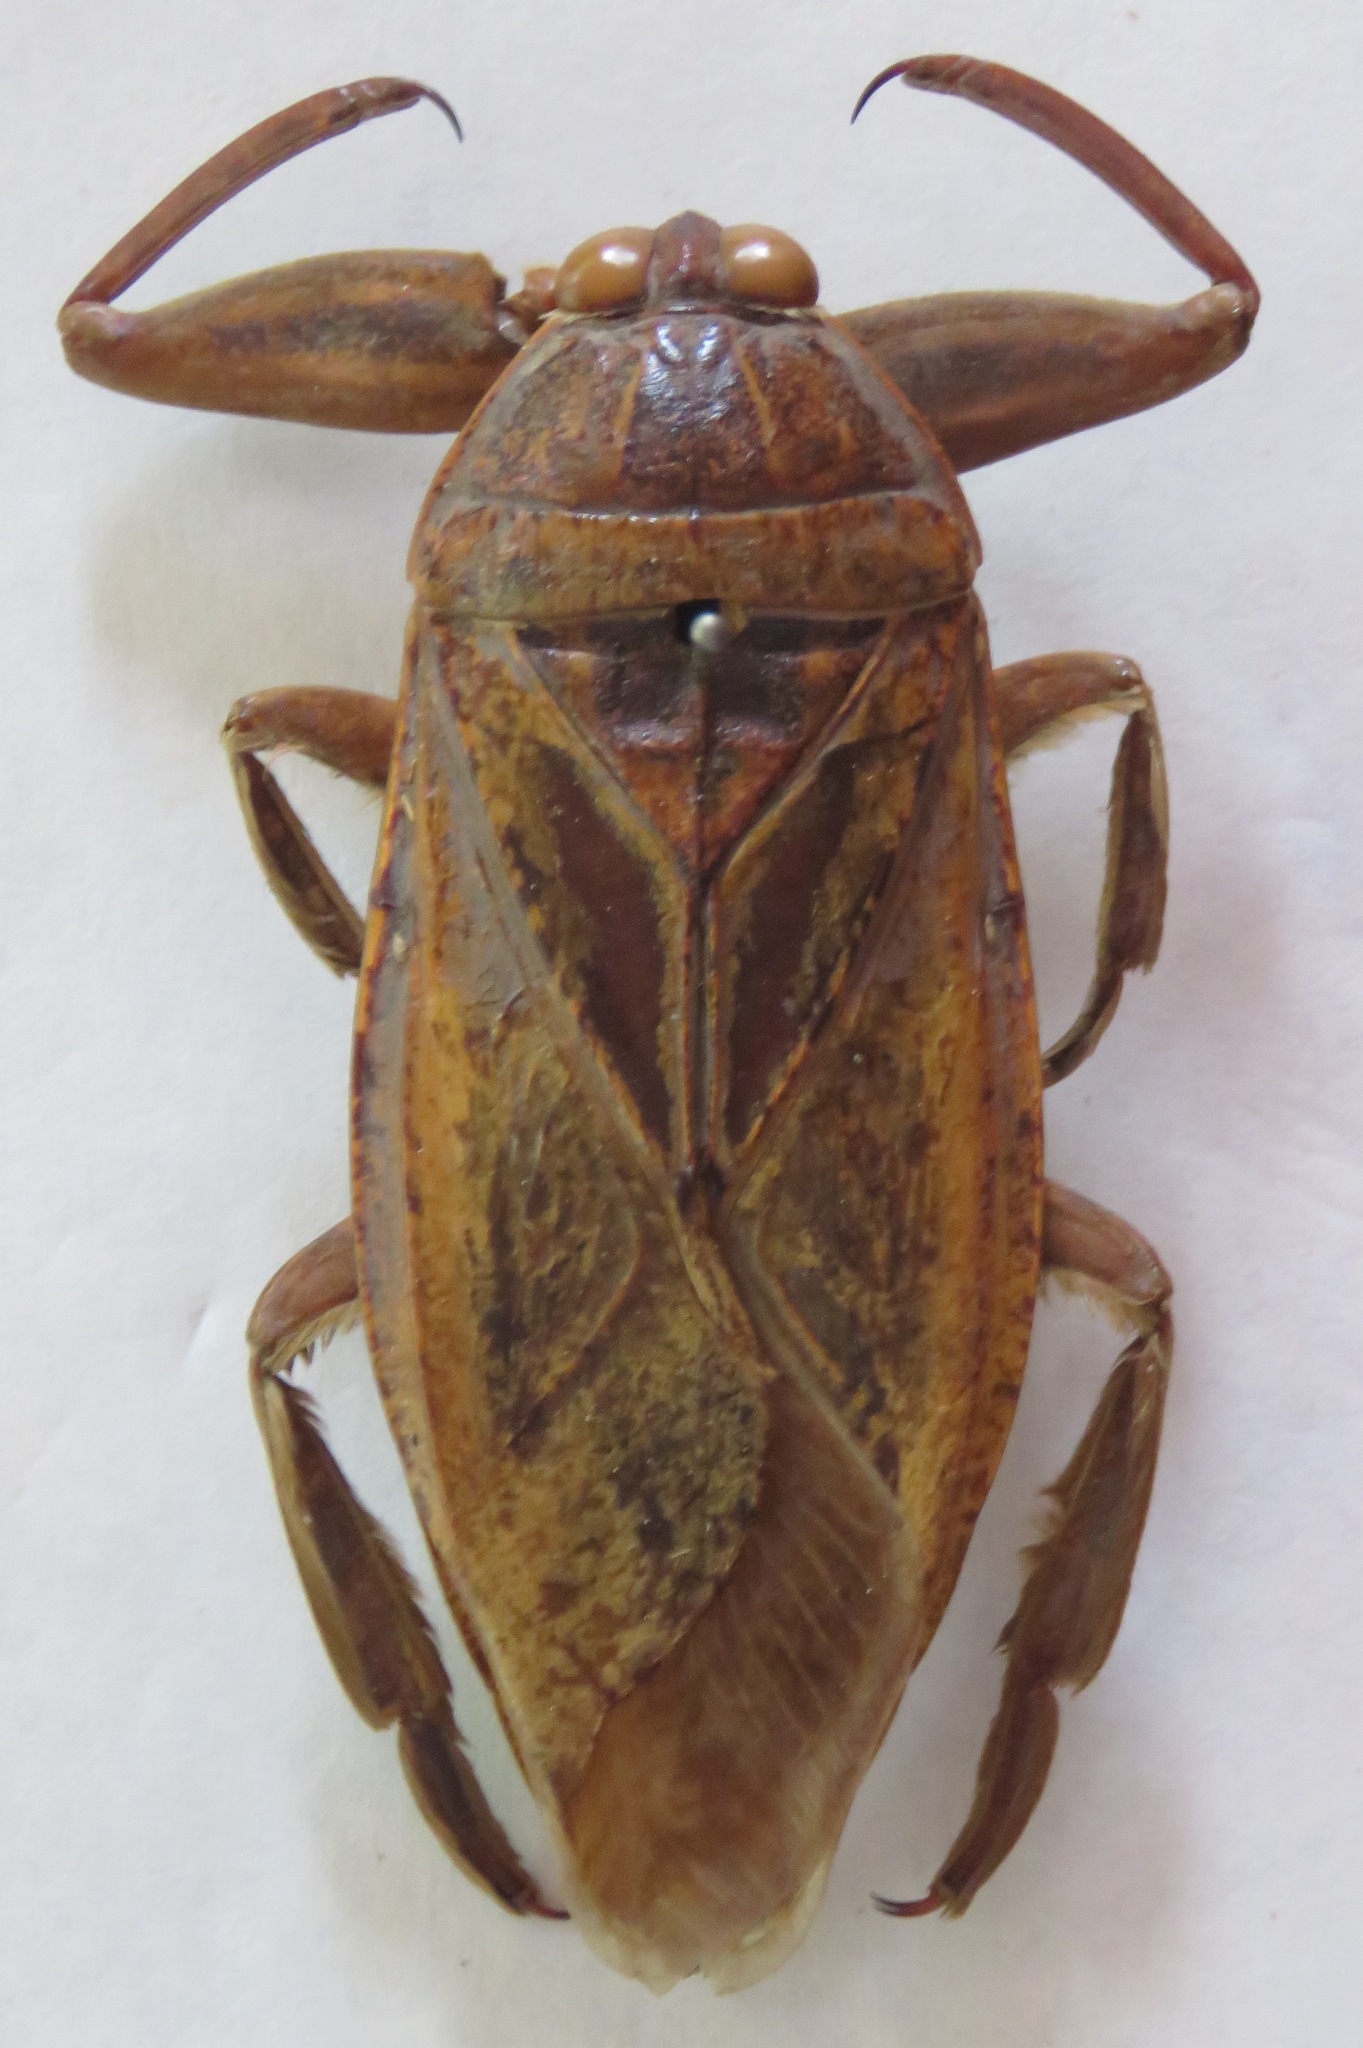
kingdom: Animalia
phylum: Arthropoda
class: Insecta
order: Hemiptera
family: Belostomatidae
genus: Lethocerus
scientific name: Lethocerus cordofanus
